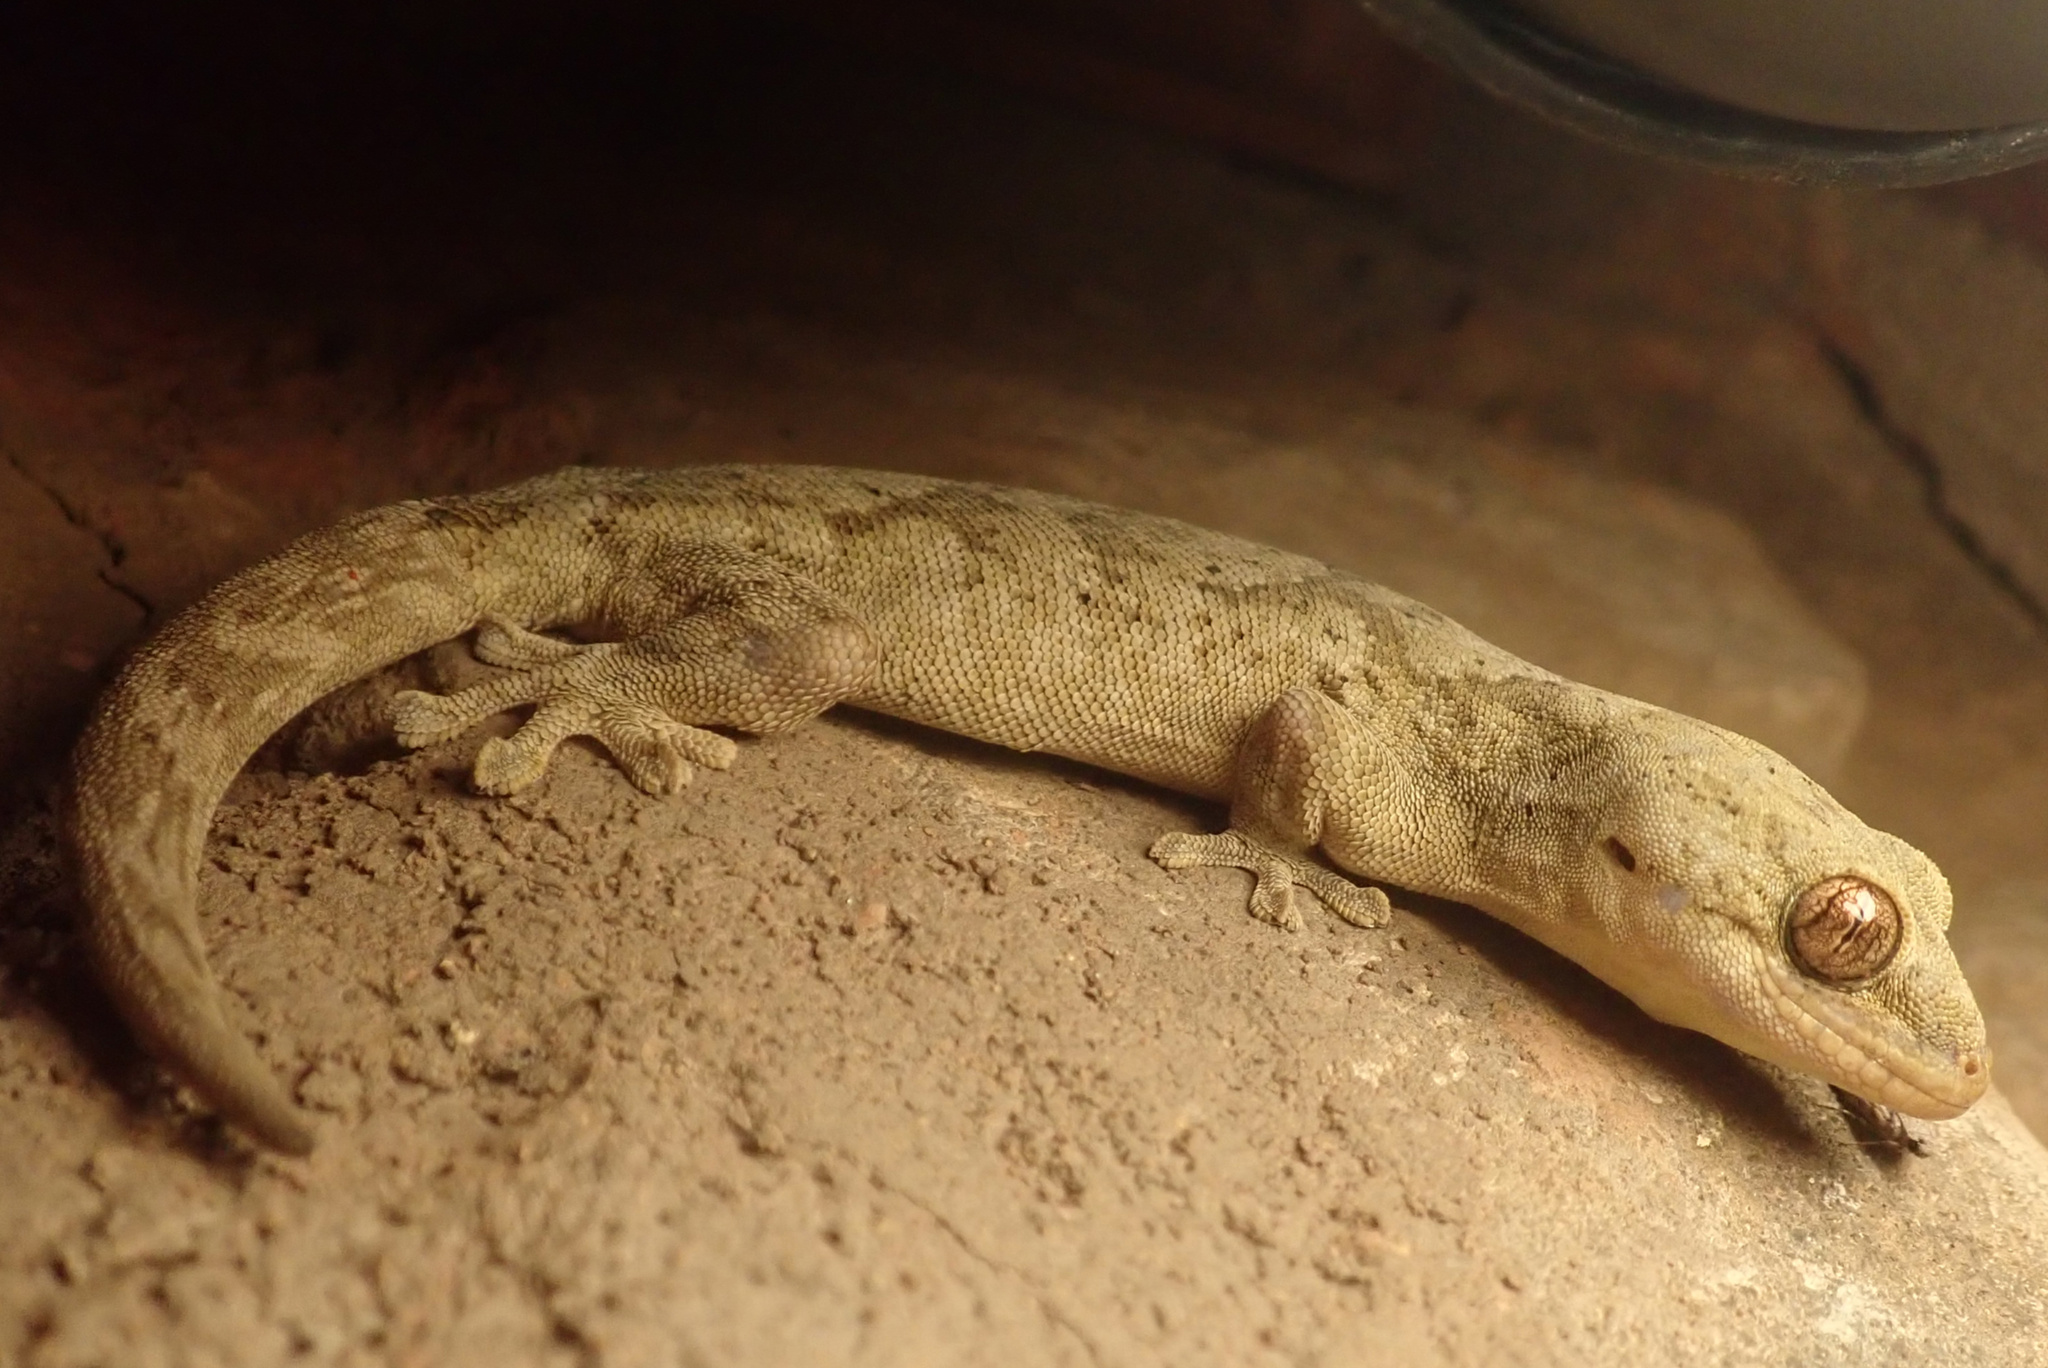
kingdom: Animalia
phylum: Chordata
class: Squamata
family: Gekkonidae
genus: Homopholis
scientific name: Homopholis walbergii
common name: Wahlberg’s velvet gecko
